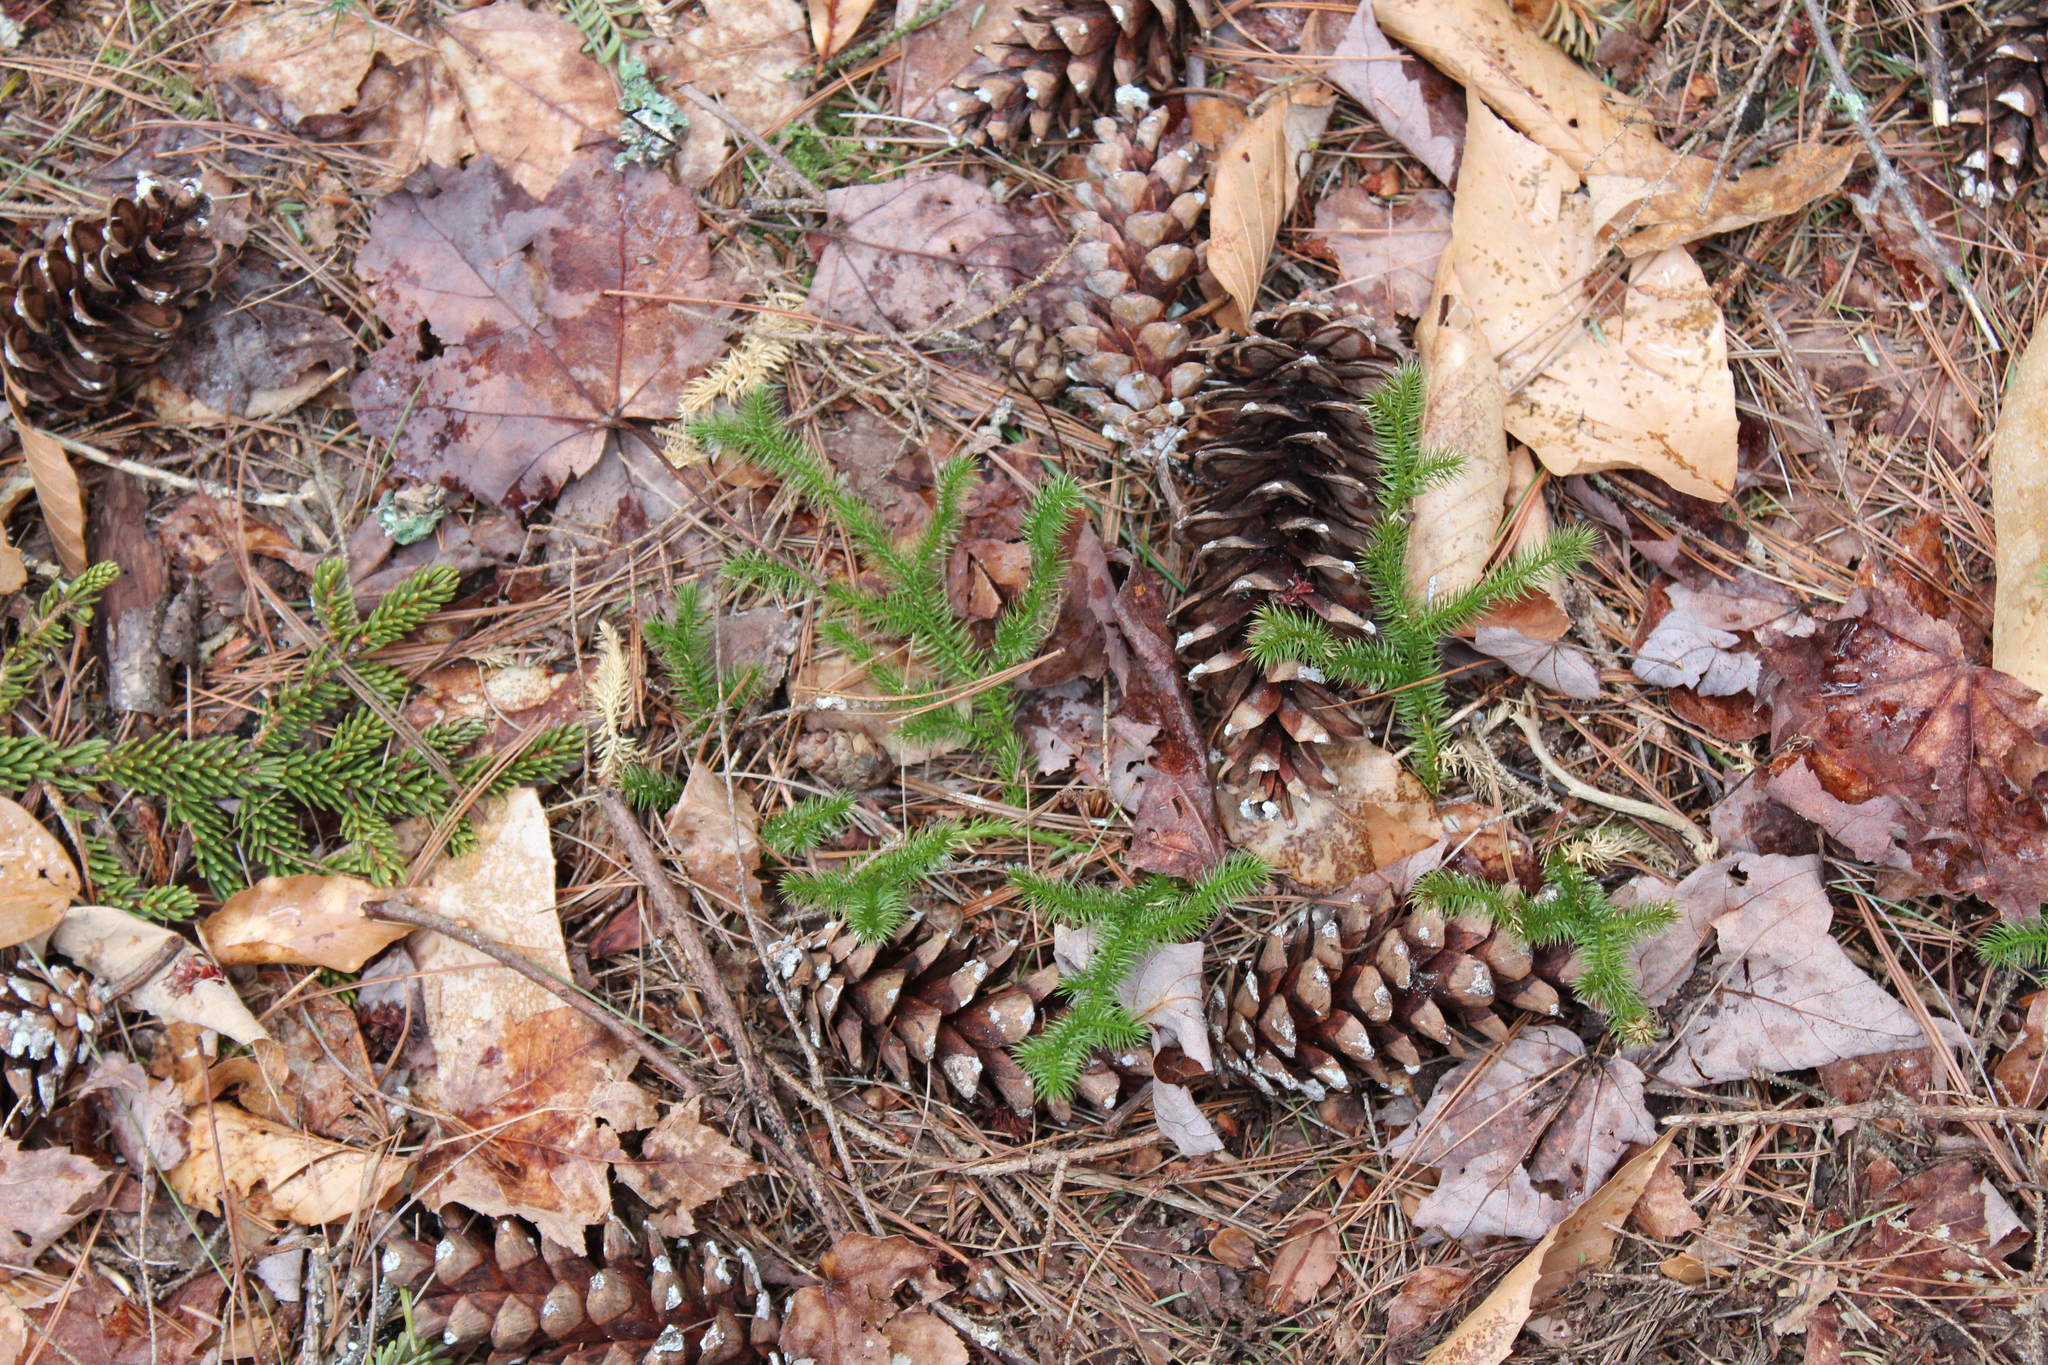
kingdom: Plantae
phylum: Tracheophyta
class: Lycopodiopsida
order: Lycopodiales
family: Lycopodiaceae
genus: Lycopodium
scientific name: Lycopodium clavatum
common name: Stag's-horn clubmoss
